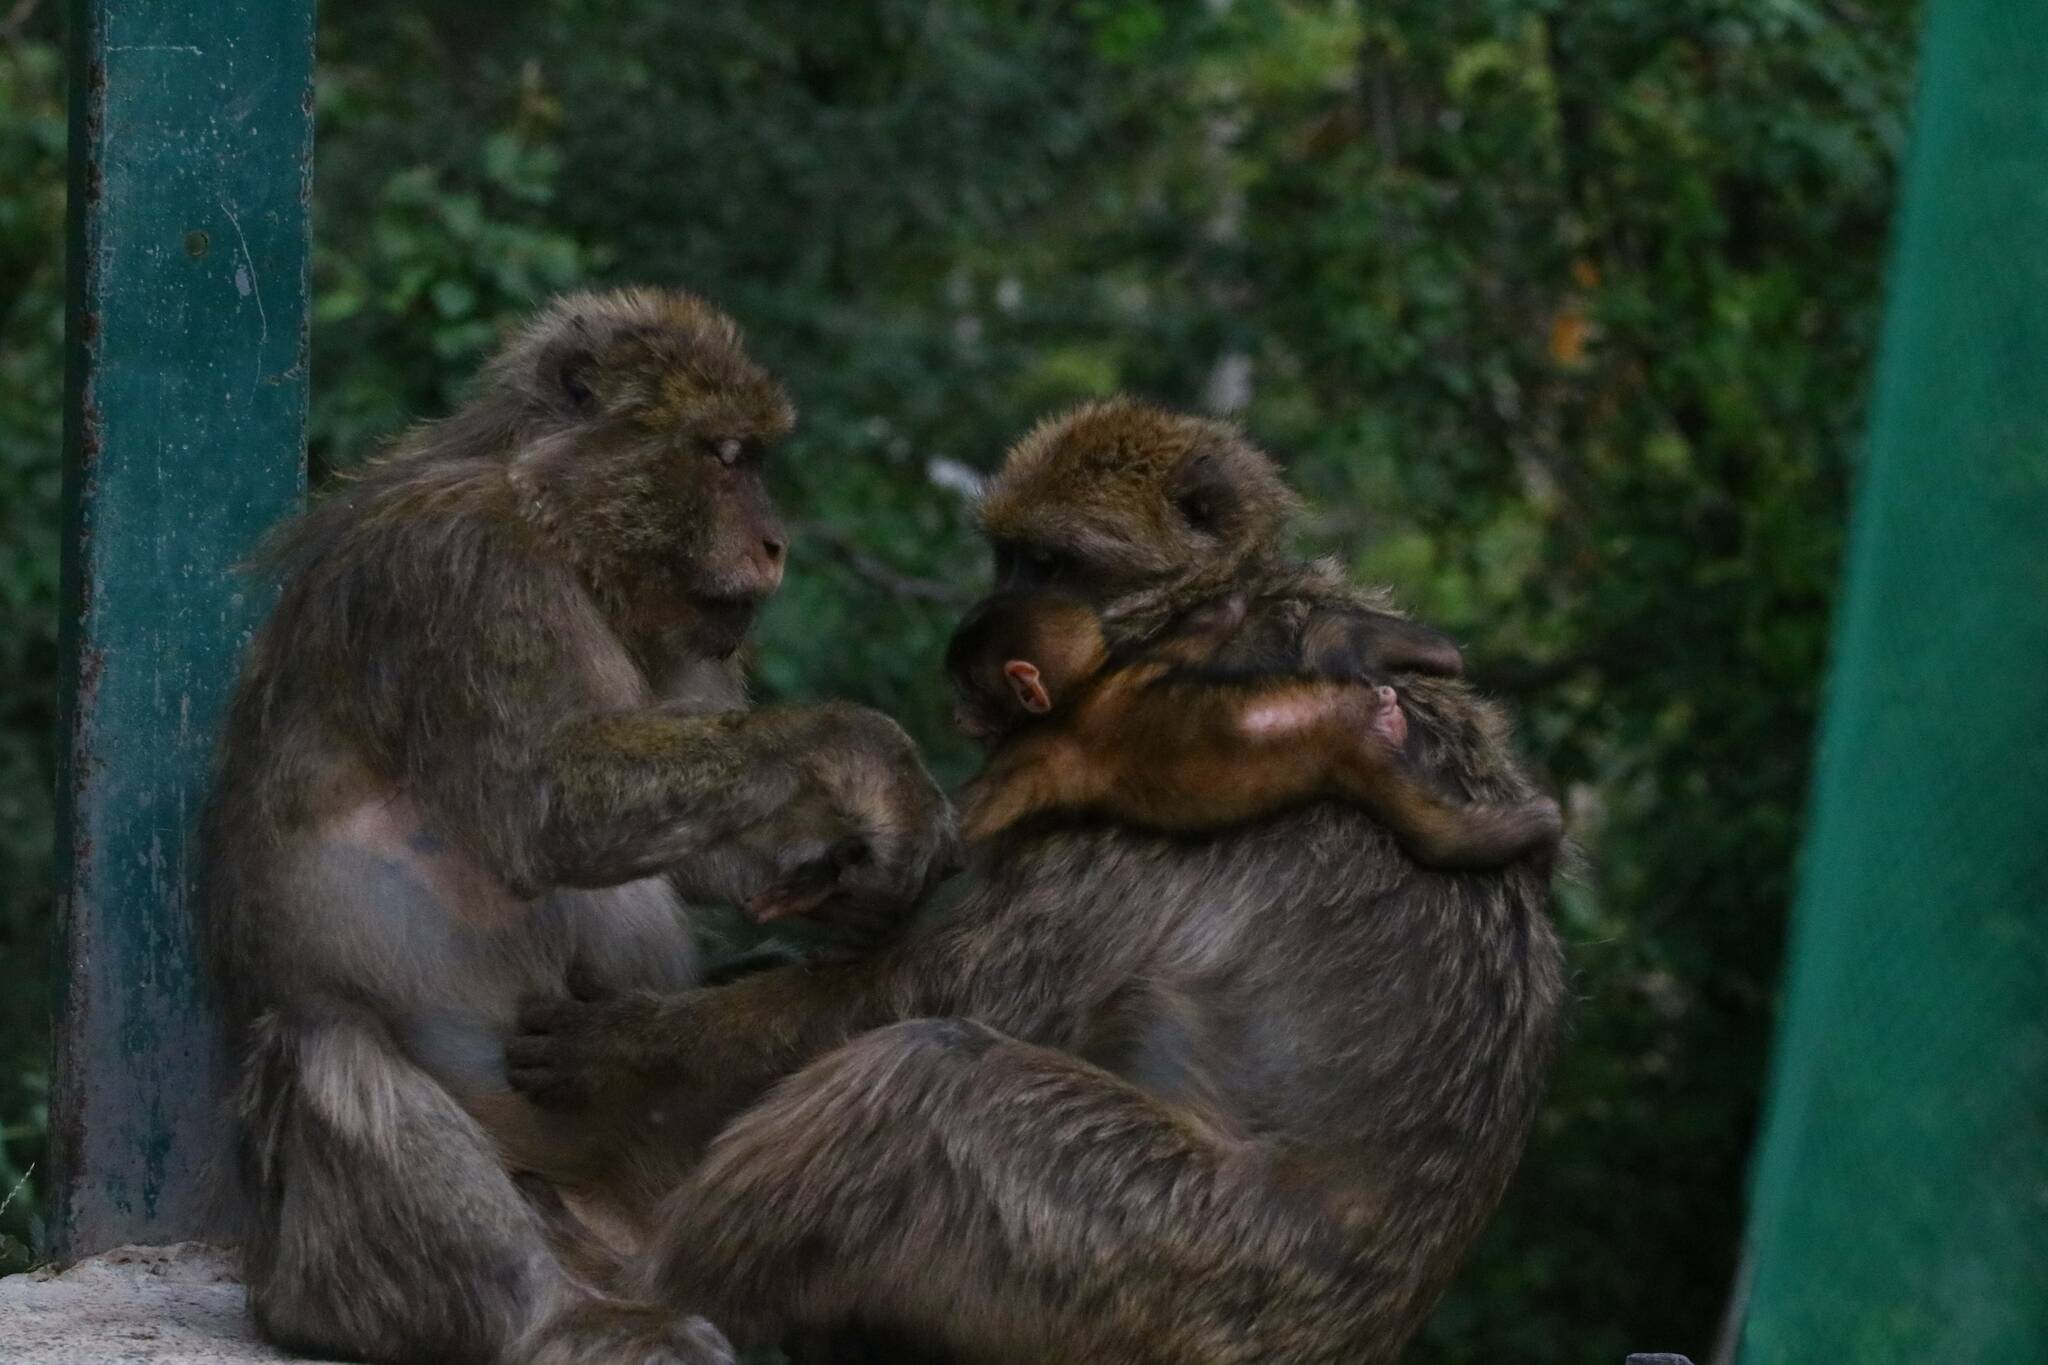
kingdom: Animalia
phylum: Chordata
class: Mammalia
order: Primates
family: Cercopithecidae
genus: Macaca
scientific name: Macaca sylvanus
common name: Barbary macaque
